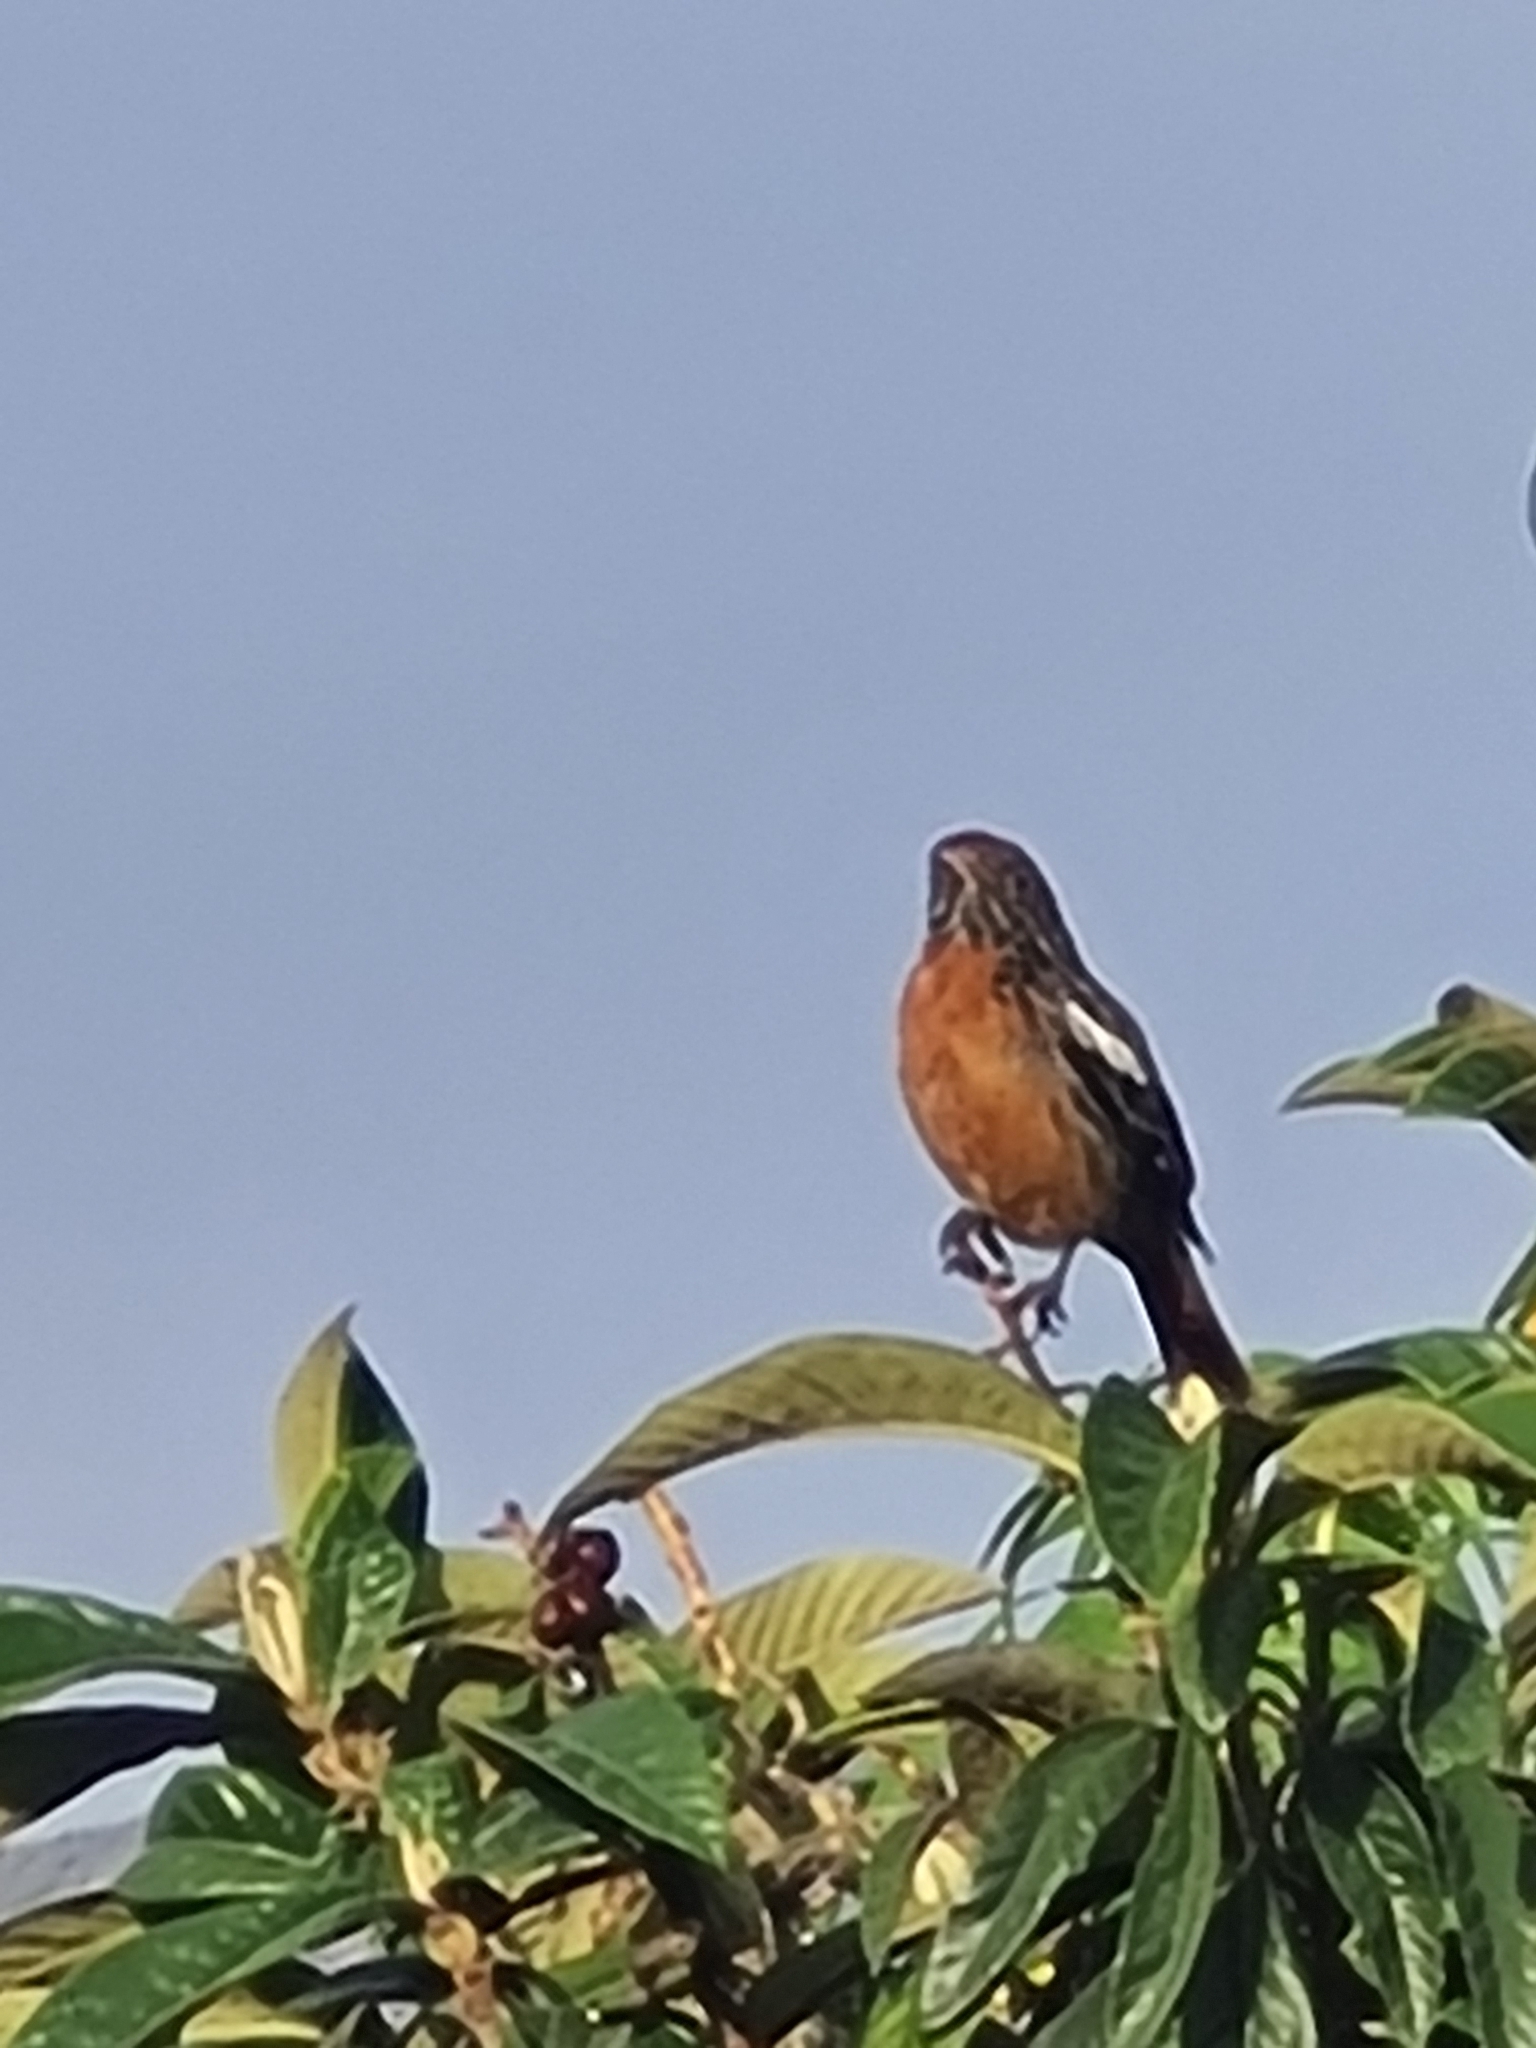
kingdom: Animalia
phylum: Chordata
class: Aves
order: Passeriformes
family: Cotingidae
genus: Phytotoma
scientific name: Phytotoma rara
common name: Rufous-tailed plantcutter
